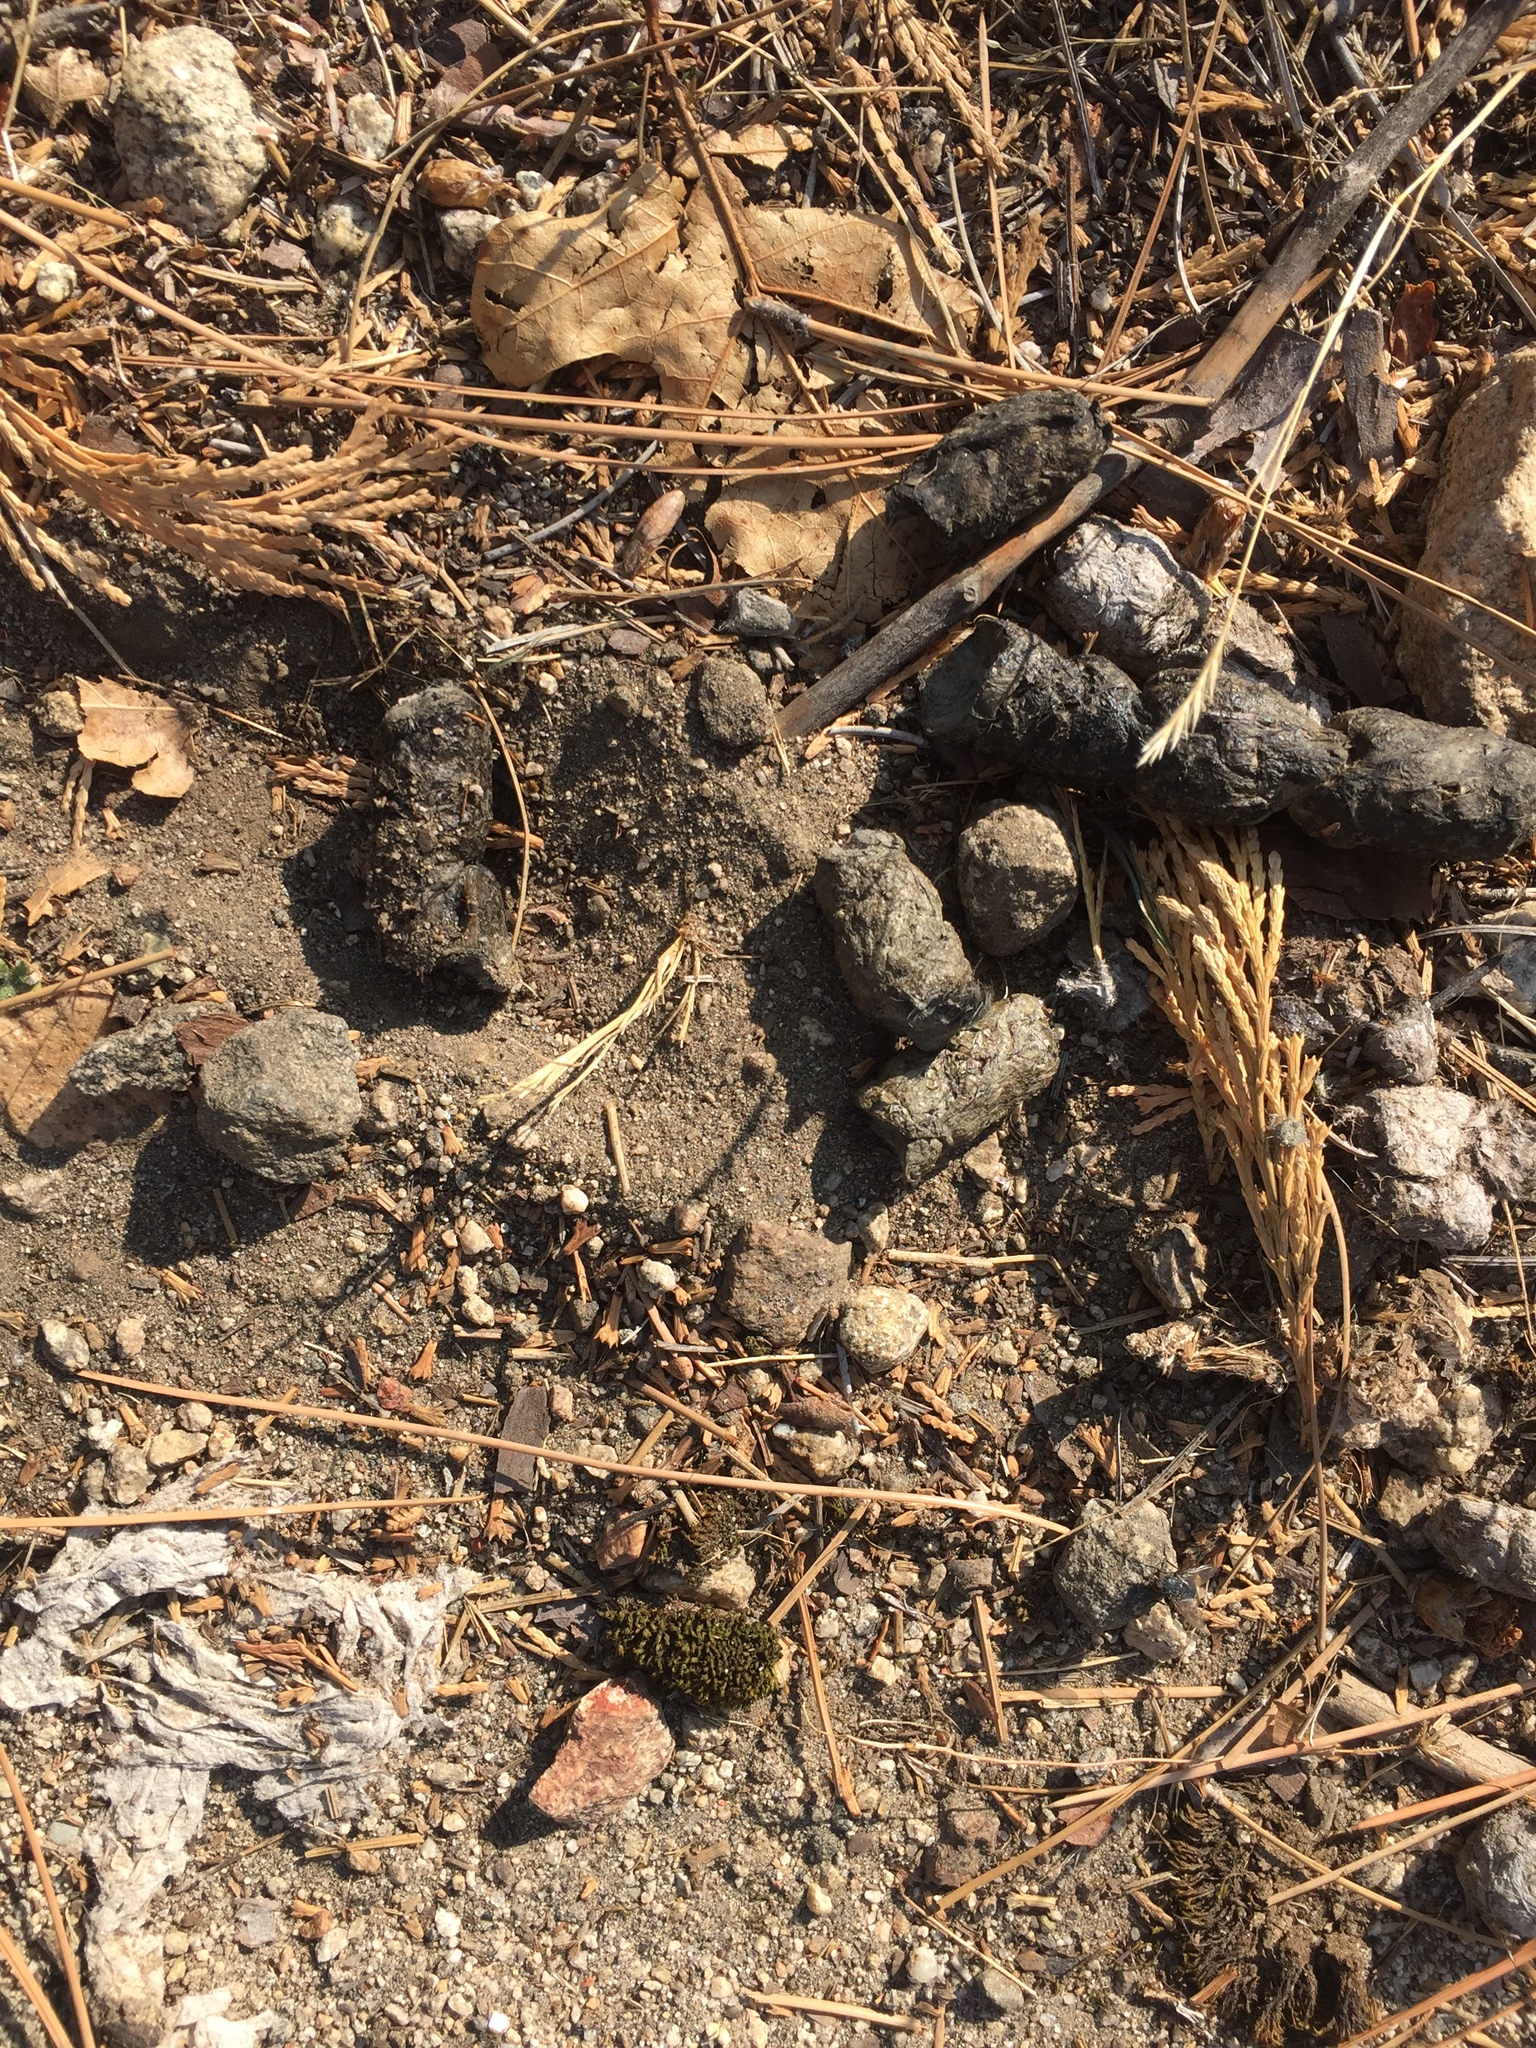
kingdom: Animalia
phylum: Chordata
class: Mammalia
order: Carnivora
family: Felidae
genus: Lynx
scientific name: Lynx rufus
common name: Bobcat
